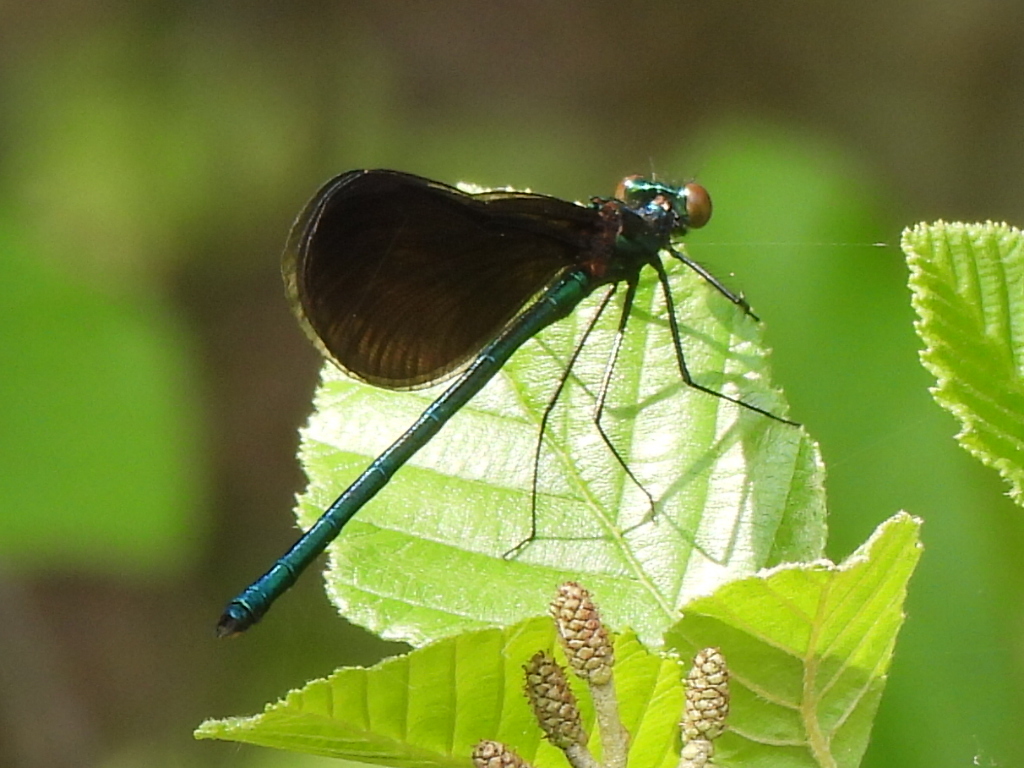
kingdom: Animalia
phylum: Arthropoda
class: Insecta
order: Odonata
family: Calopterygidae
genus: Calopteryx
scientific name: Calopteryx maculata
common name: Ebony jewelwing
